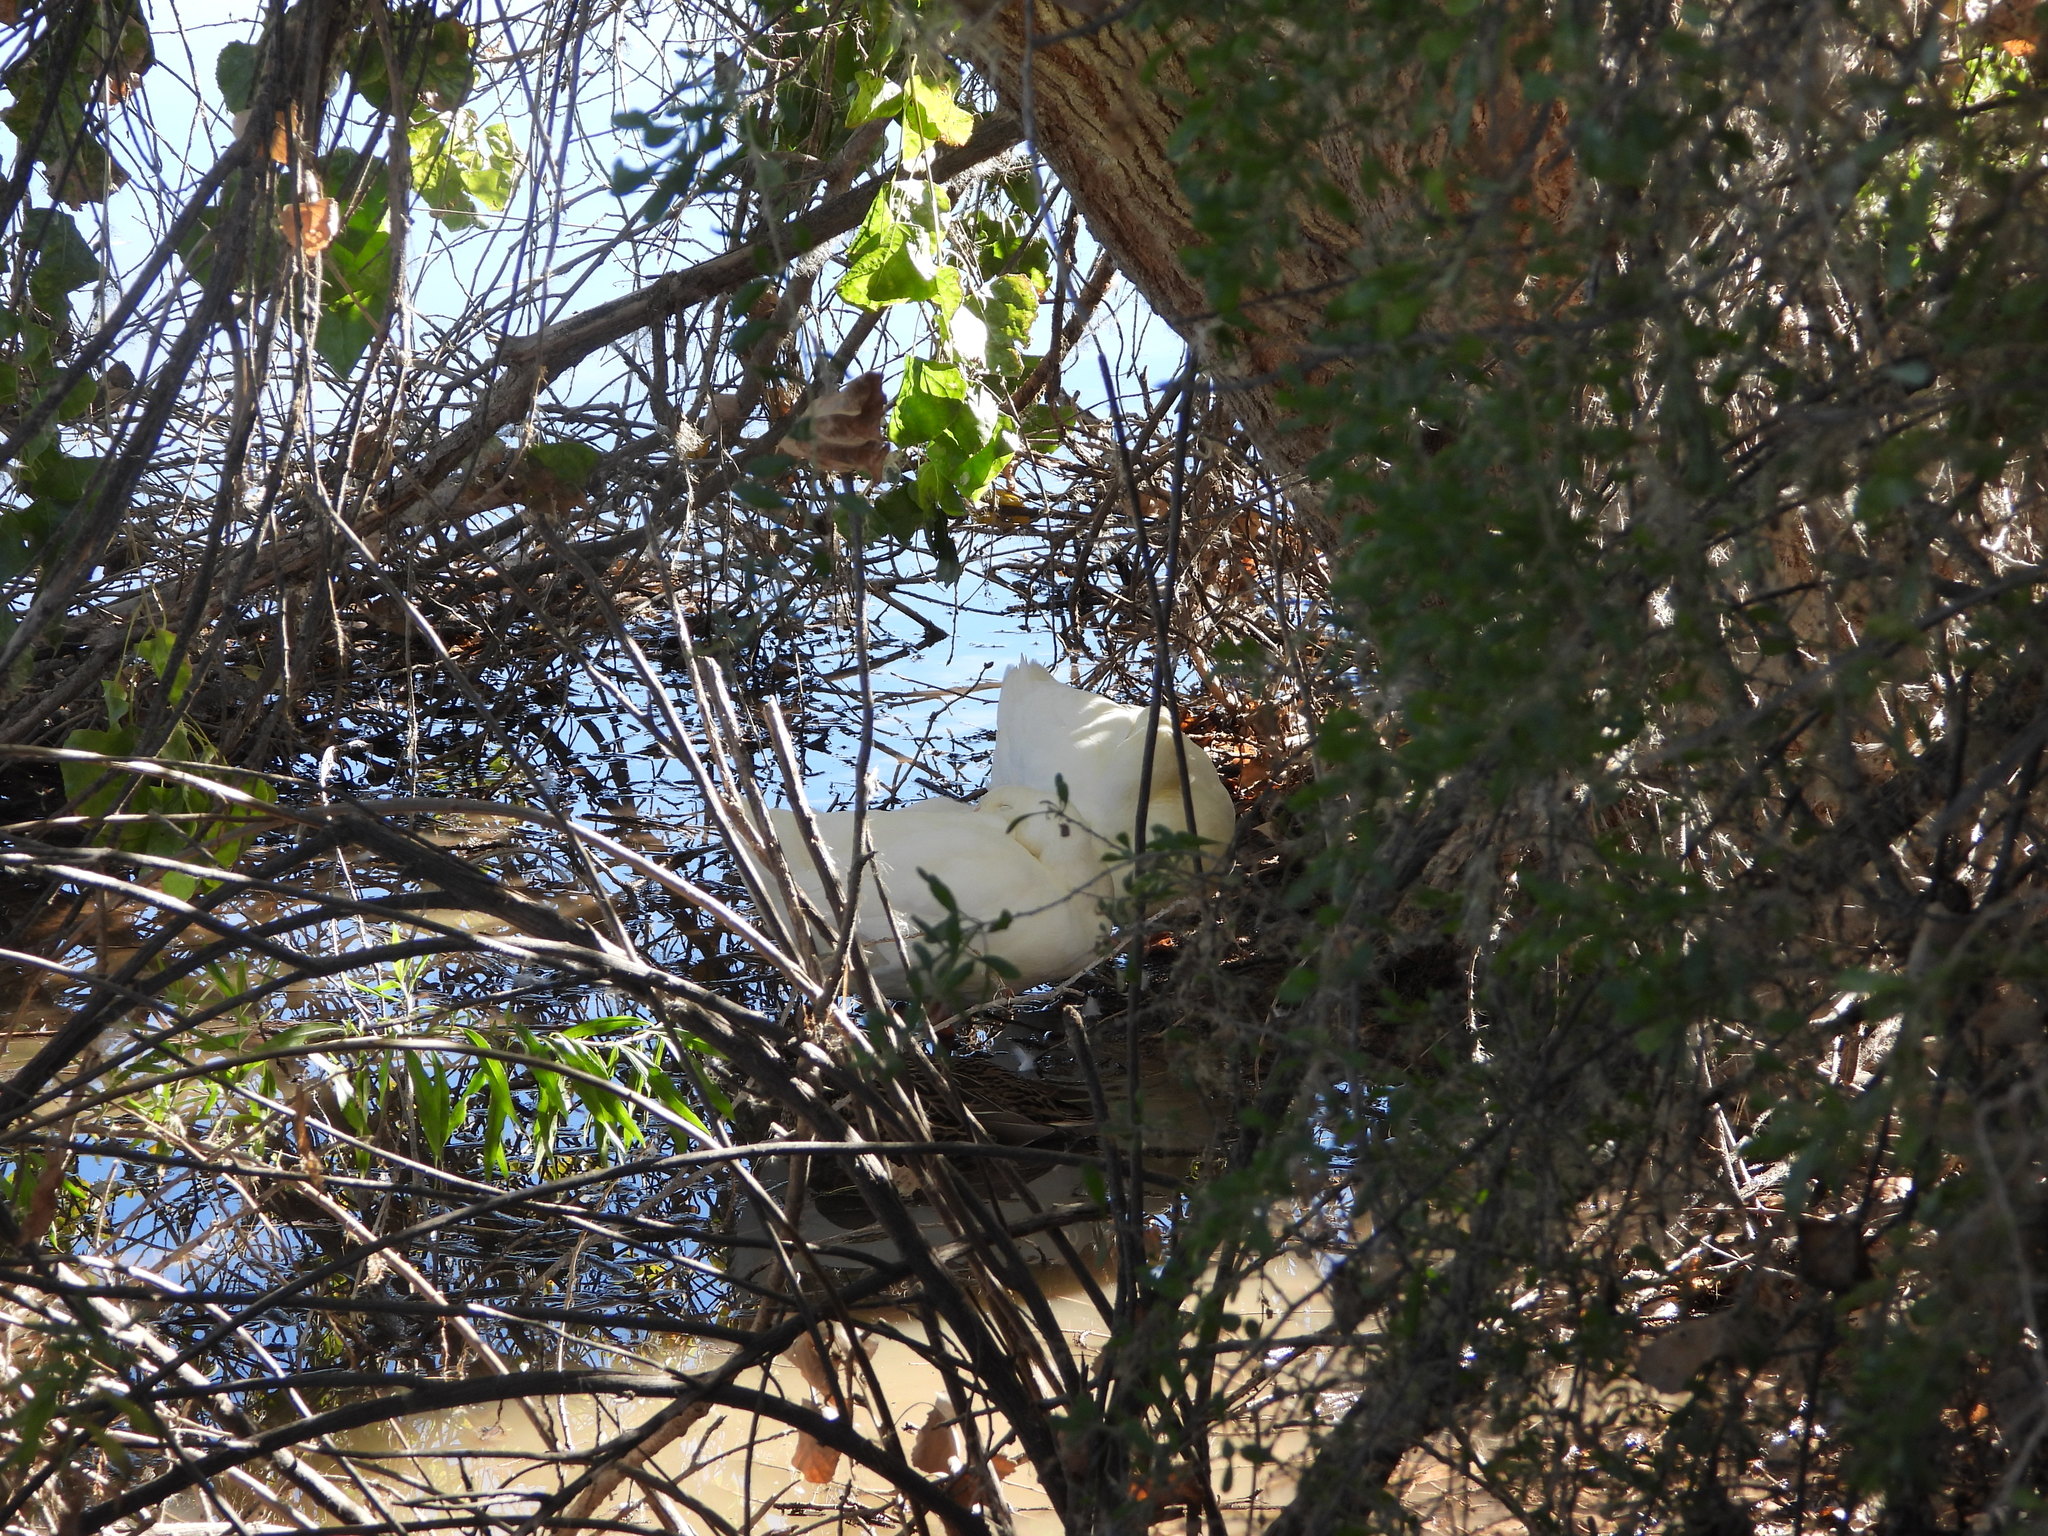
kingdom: Animalia
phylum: Chordata
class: Aves
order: Anseriformes
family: Anatidae
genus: Anas
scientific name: Anas platyrhynchos
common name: Mallard
